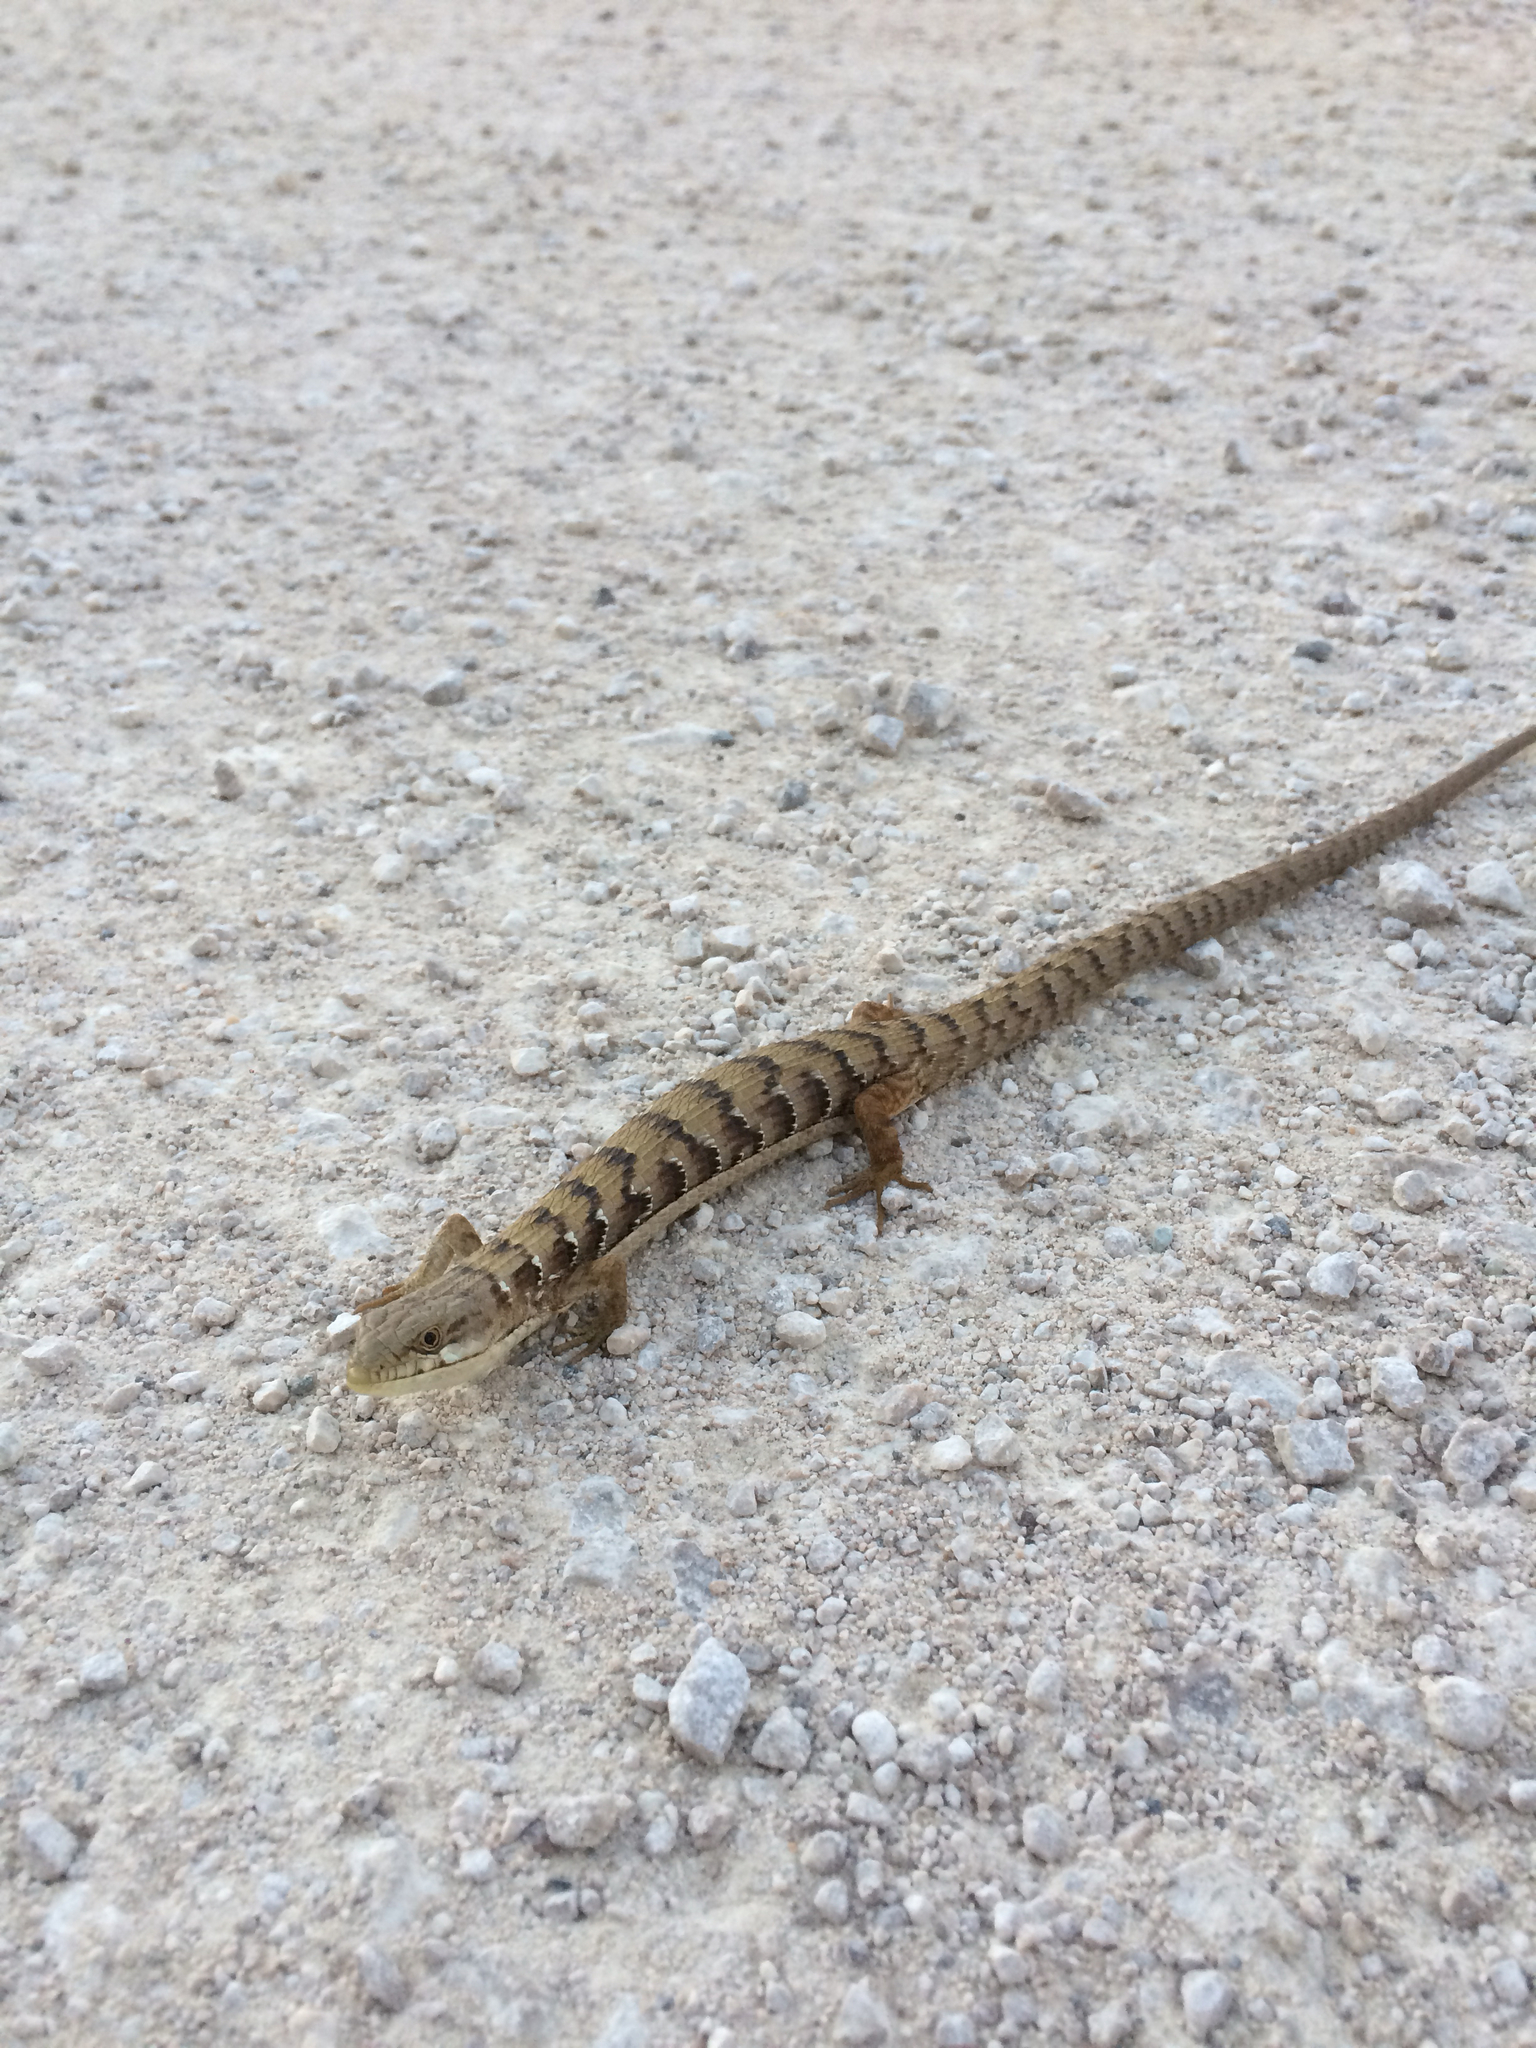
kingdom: Animalia
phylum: Chordata
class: Squamata
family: Anguidae
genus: Elgaria
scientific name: Elgaria multicarinata
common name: Southern alligator lizard
